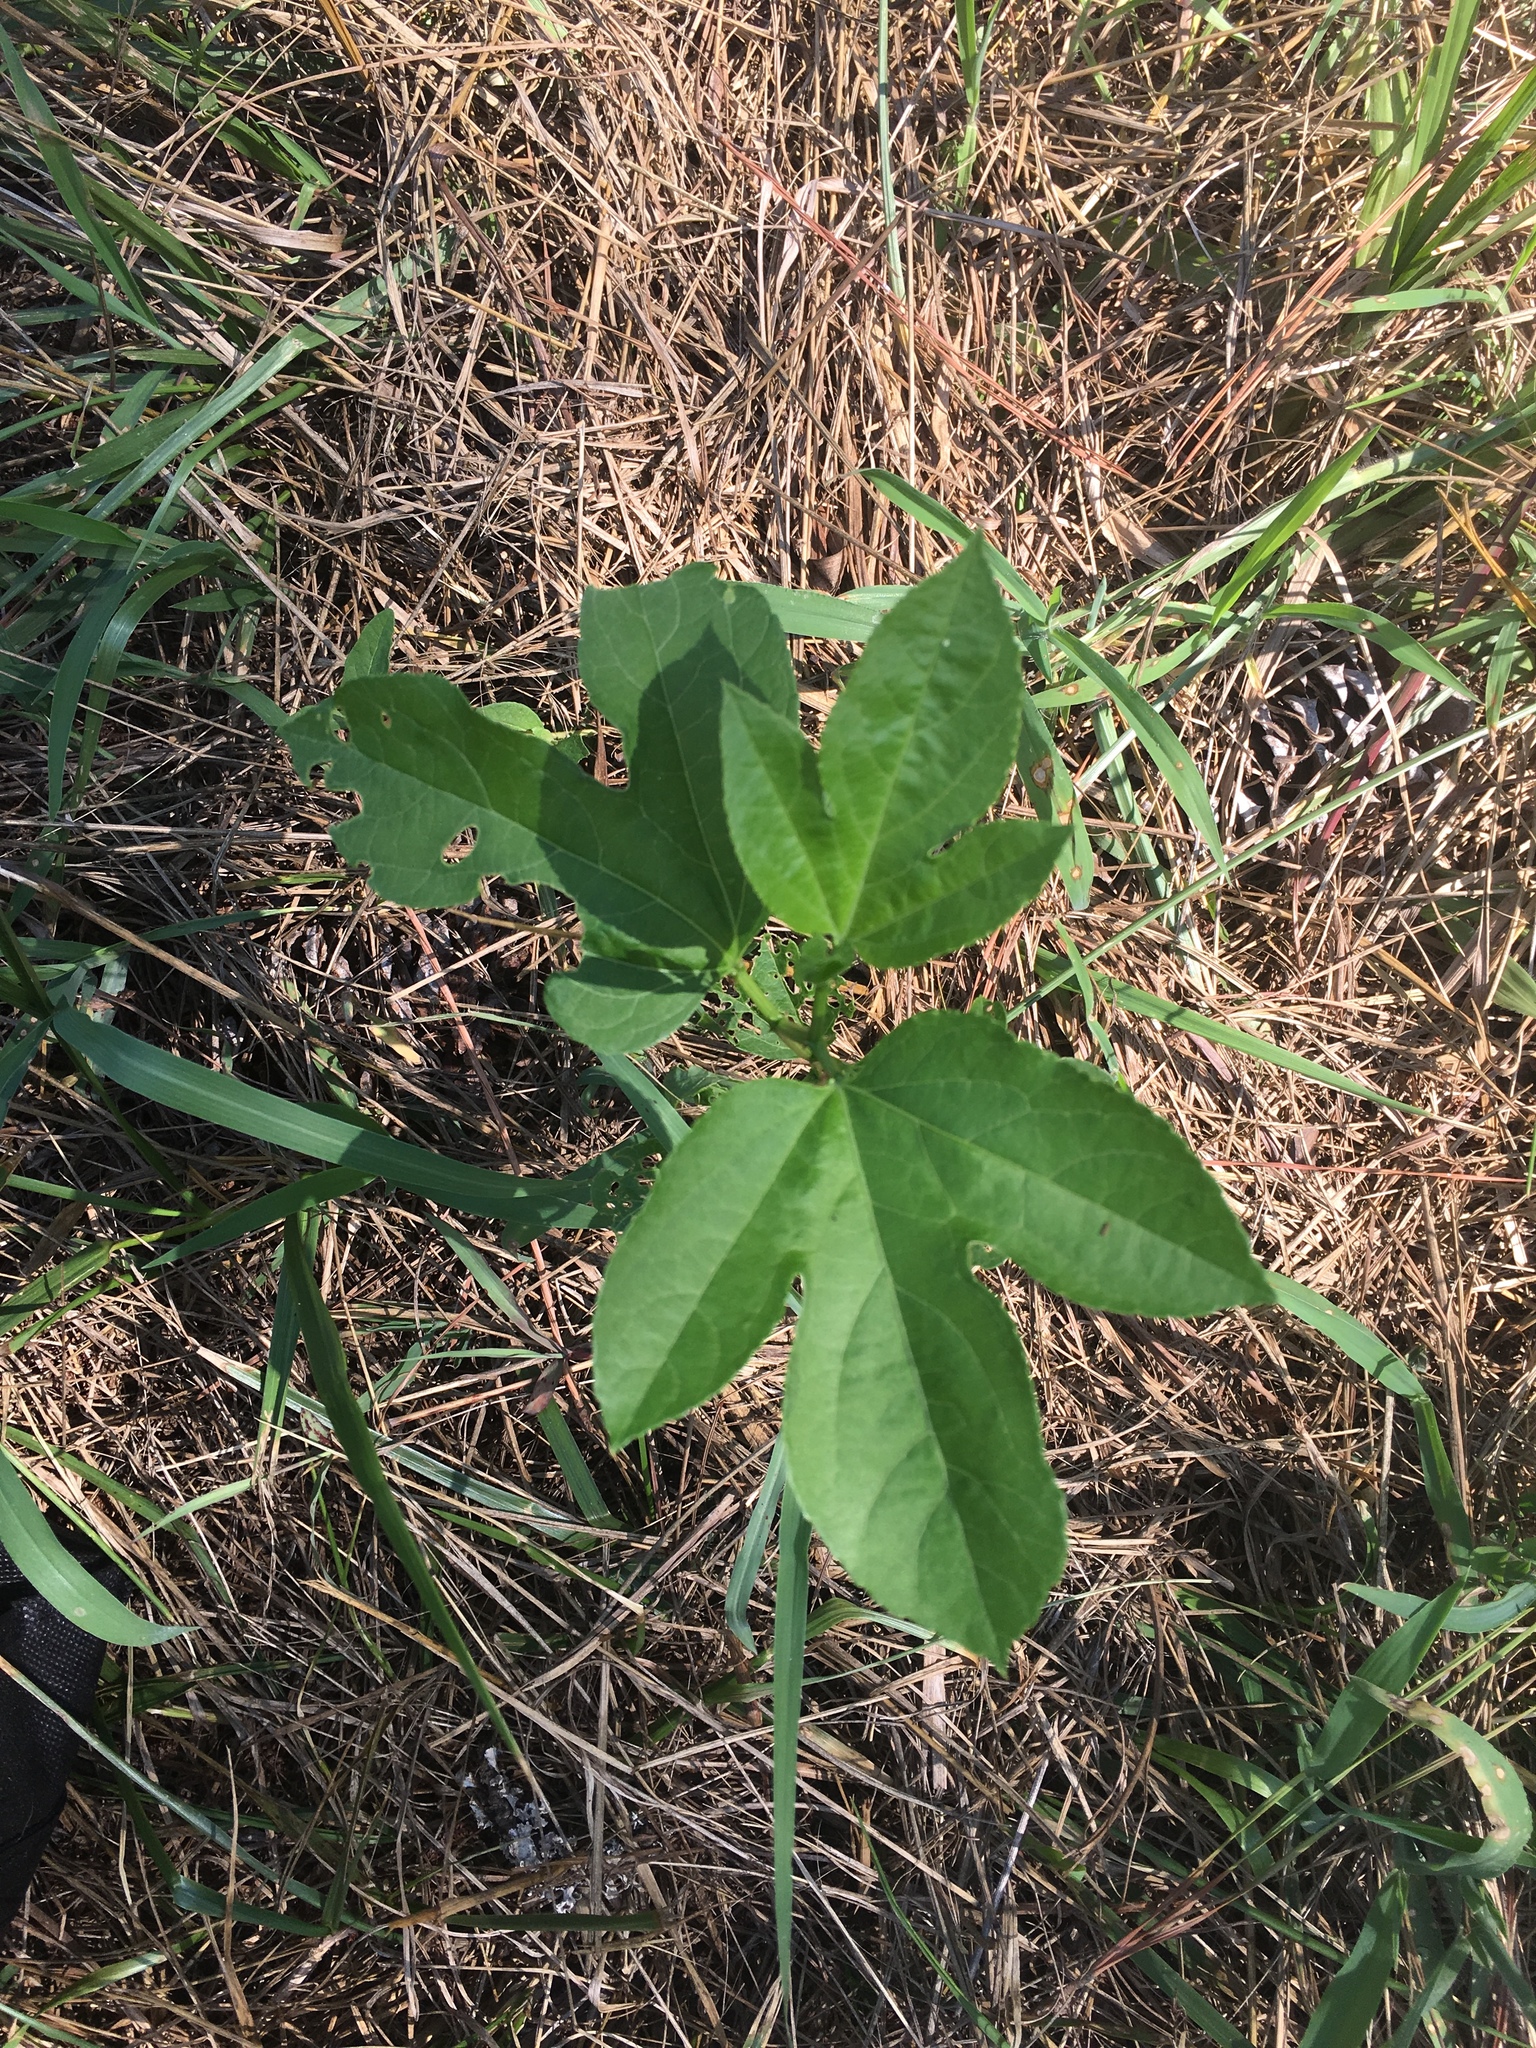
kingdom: Plantae
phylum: Tracheophyta
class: Magnoliopsida
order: Malpighiales
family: Passifloraceae
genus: Passiflora
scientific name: Passiflora incarnata
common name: Apricot-vine
